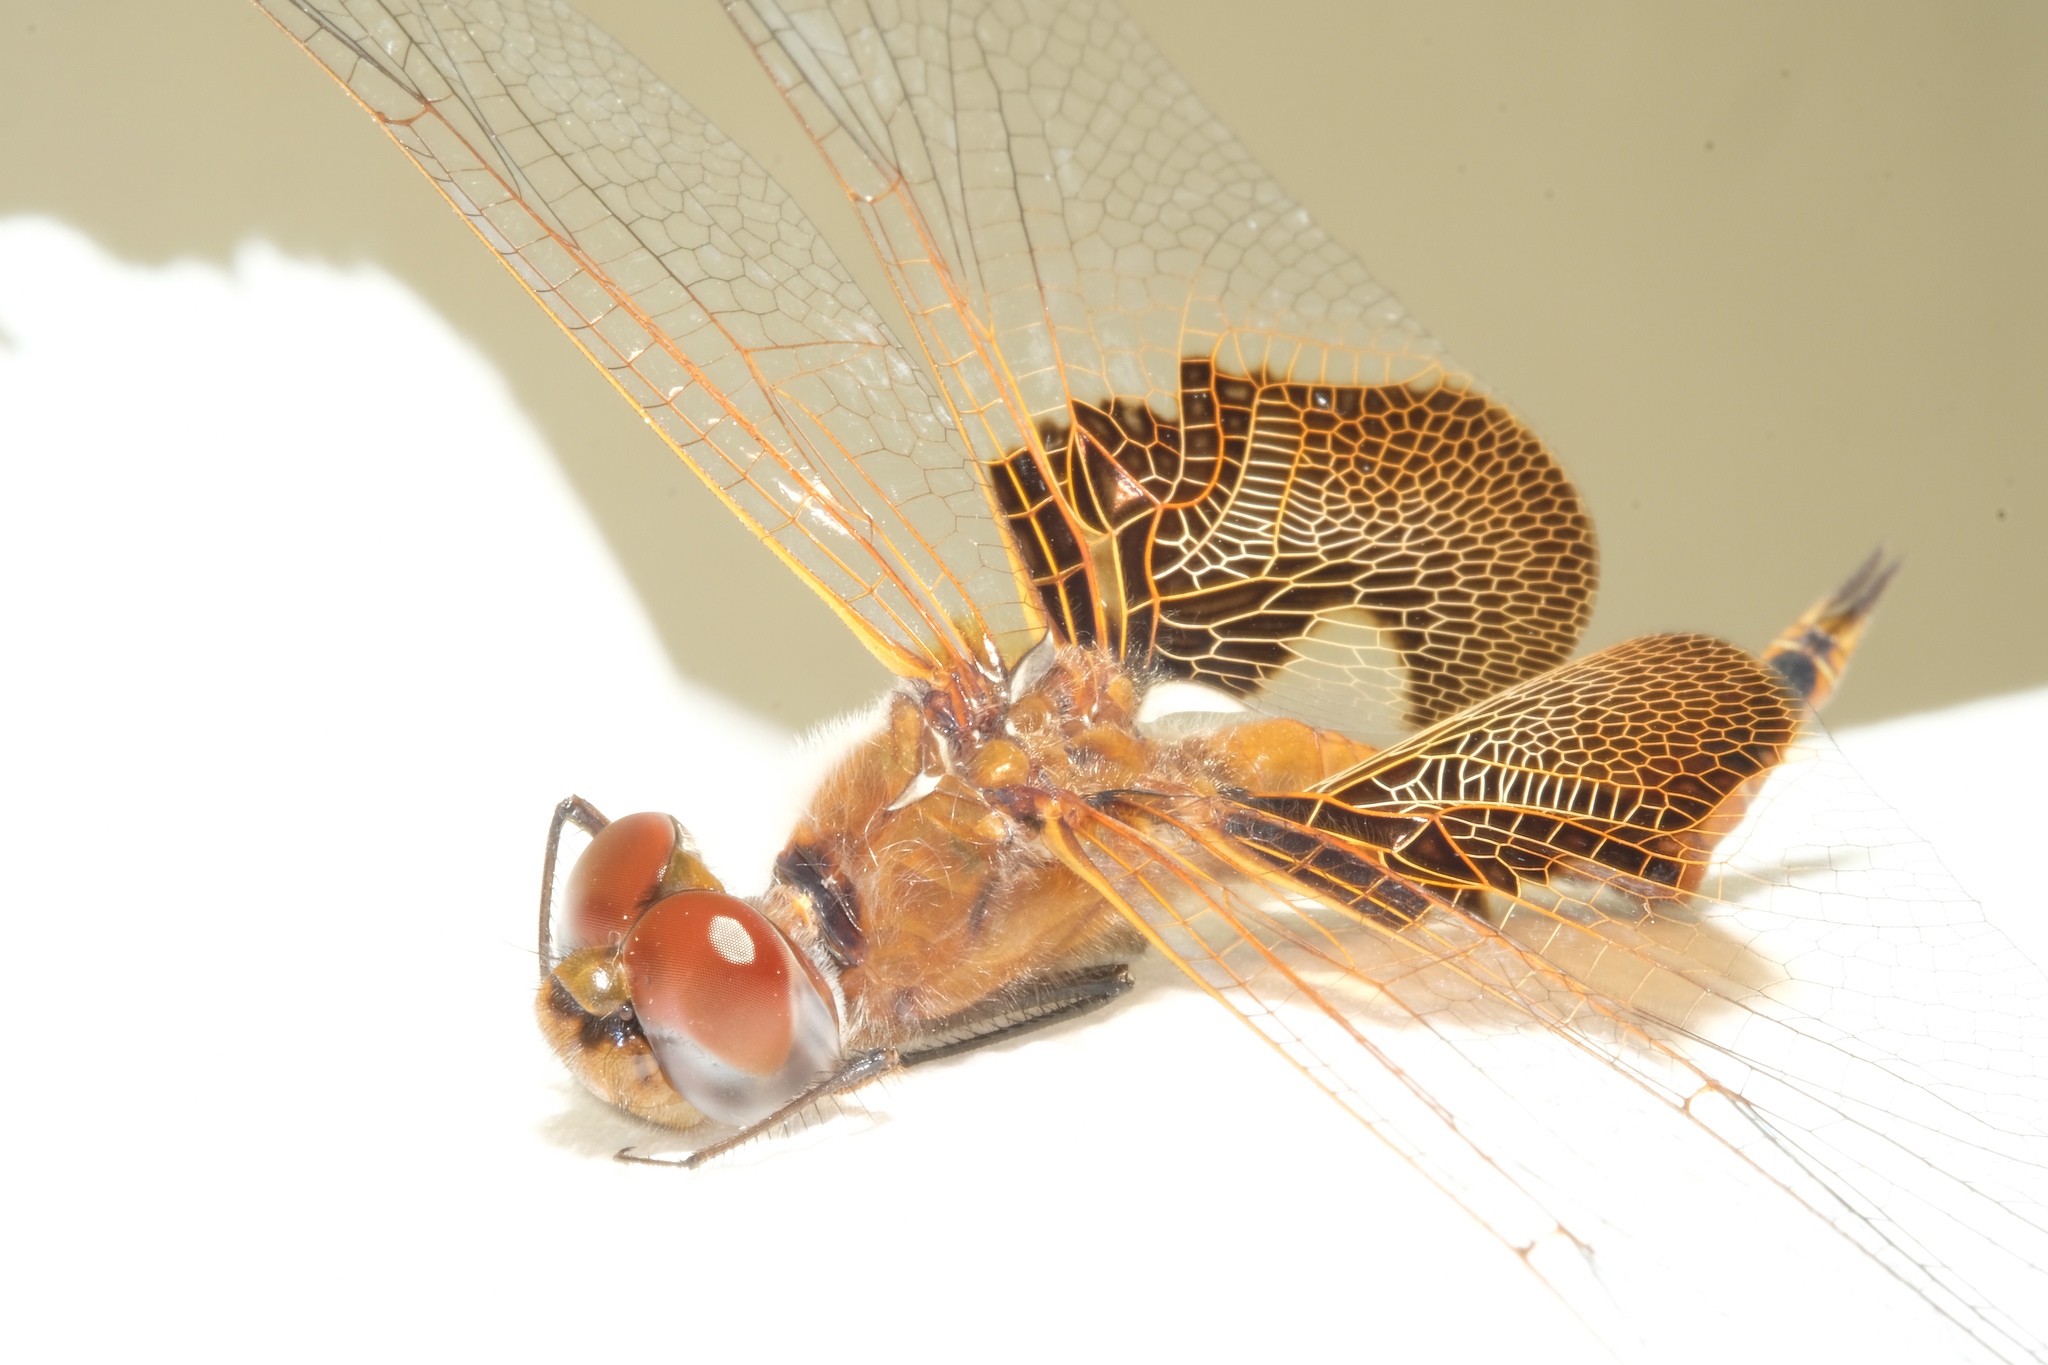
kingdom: Animalia
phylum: Arthropoda
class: Insecta
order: Odonata
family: Libellulidae
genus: Tramea
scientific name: Tramea onusta
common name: Red saddlebags
